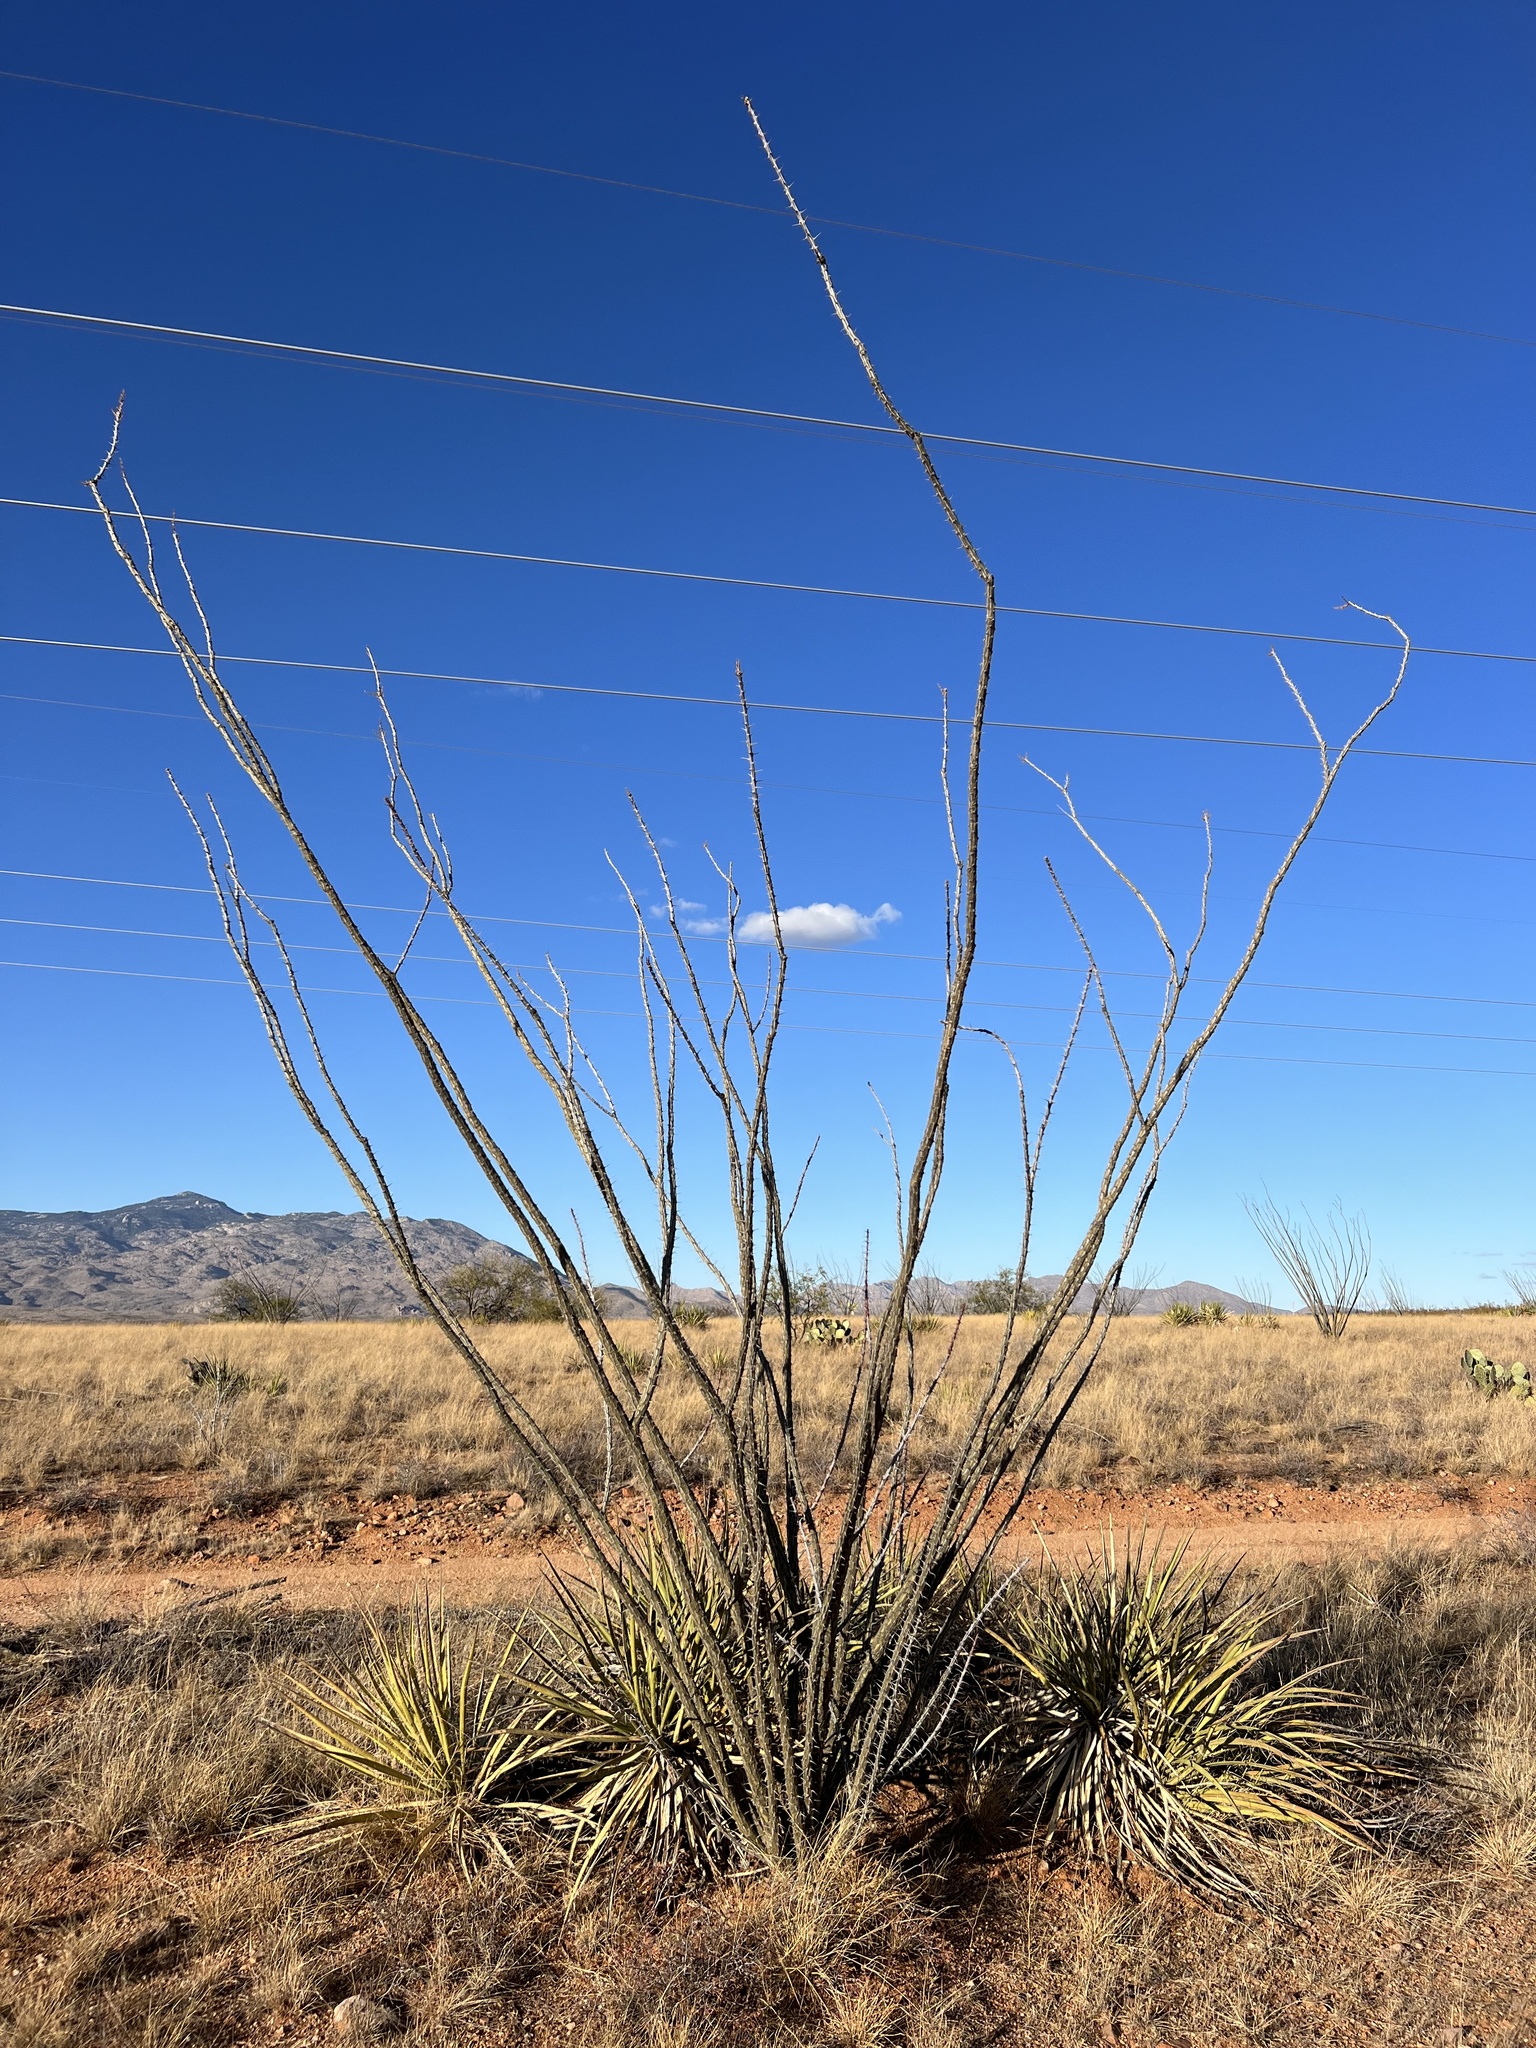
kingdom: Plantae
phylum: Tracheophyta
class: Magnoliopsida
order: Ericales
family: Fouquieriaceae
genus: Fouquieria
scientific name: Fouquieria splendens
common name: Vine-cactus
